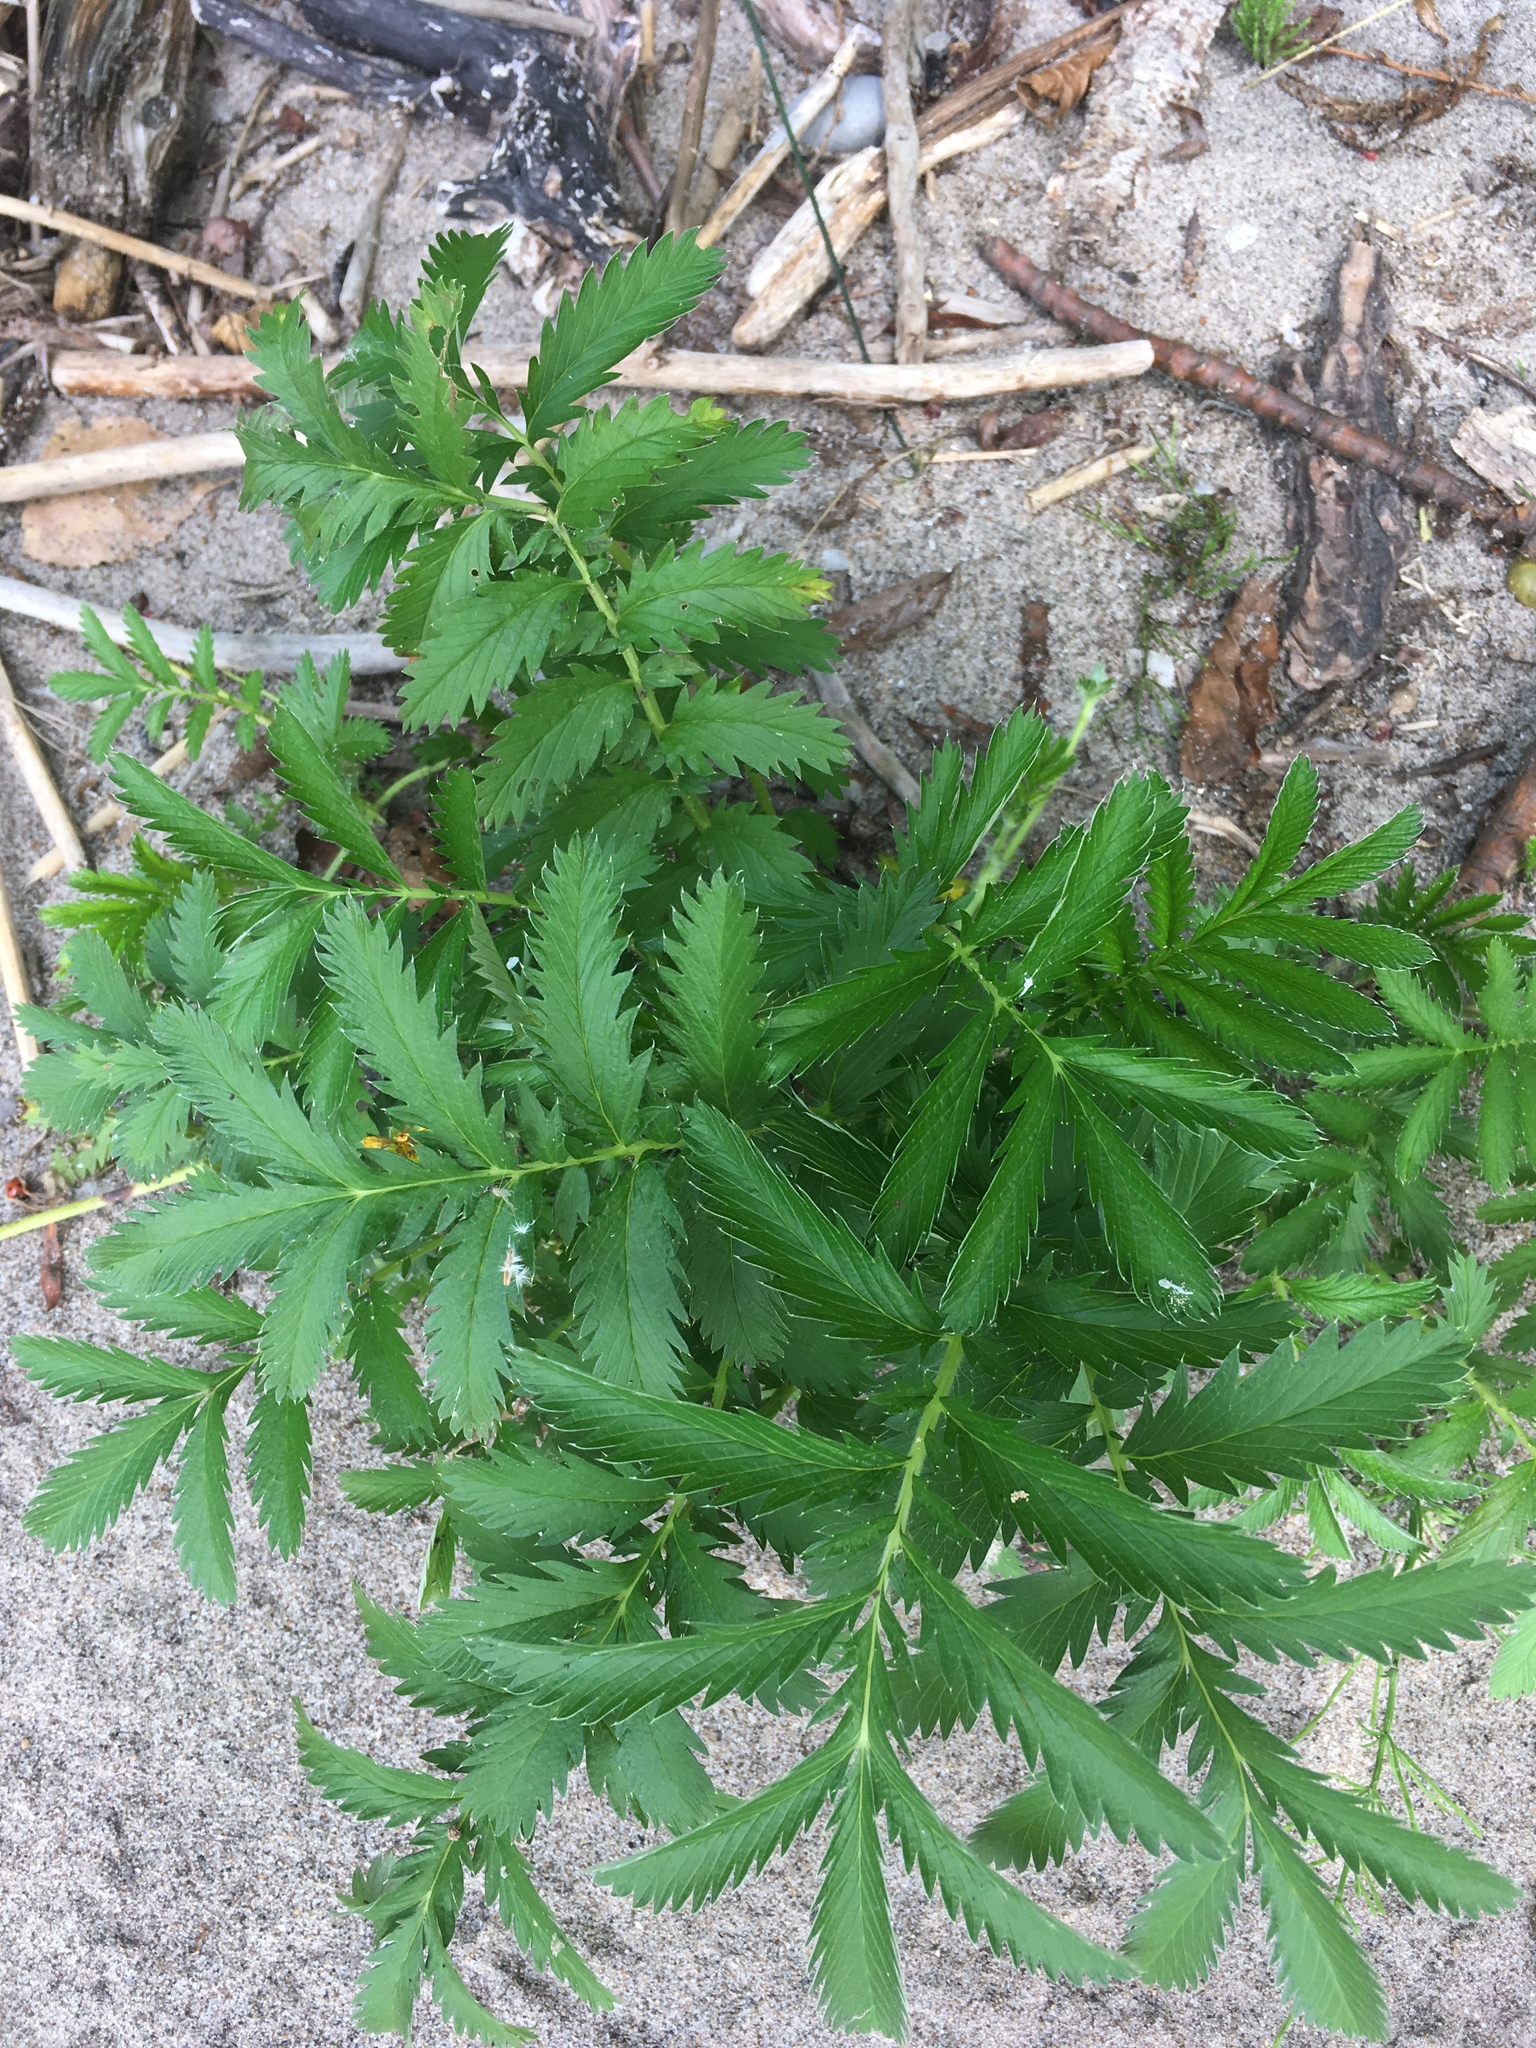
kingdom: Plantae
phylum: Tracheophyta
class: Magnoliopsida
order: Rosales
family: Rosaceae
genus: Argentina
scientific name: Argentina anserina
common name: Common silverweed
